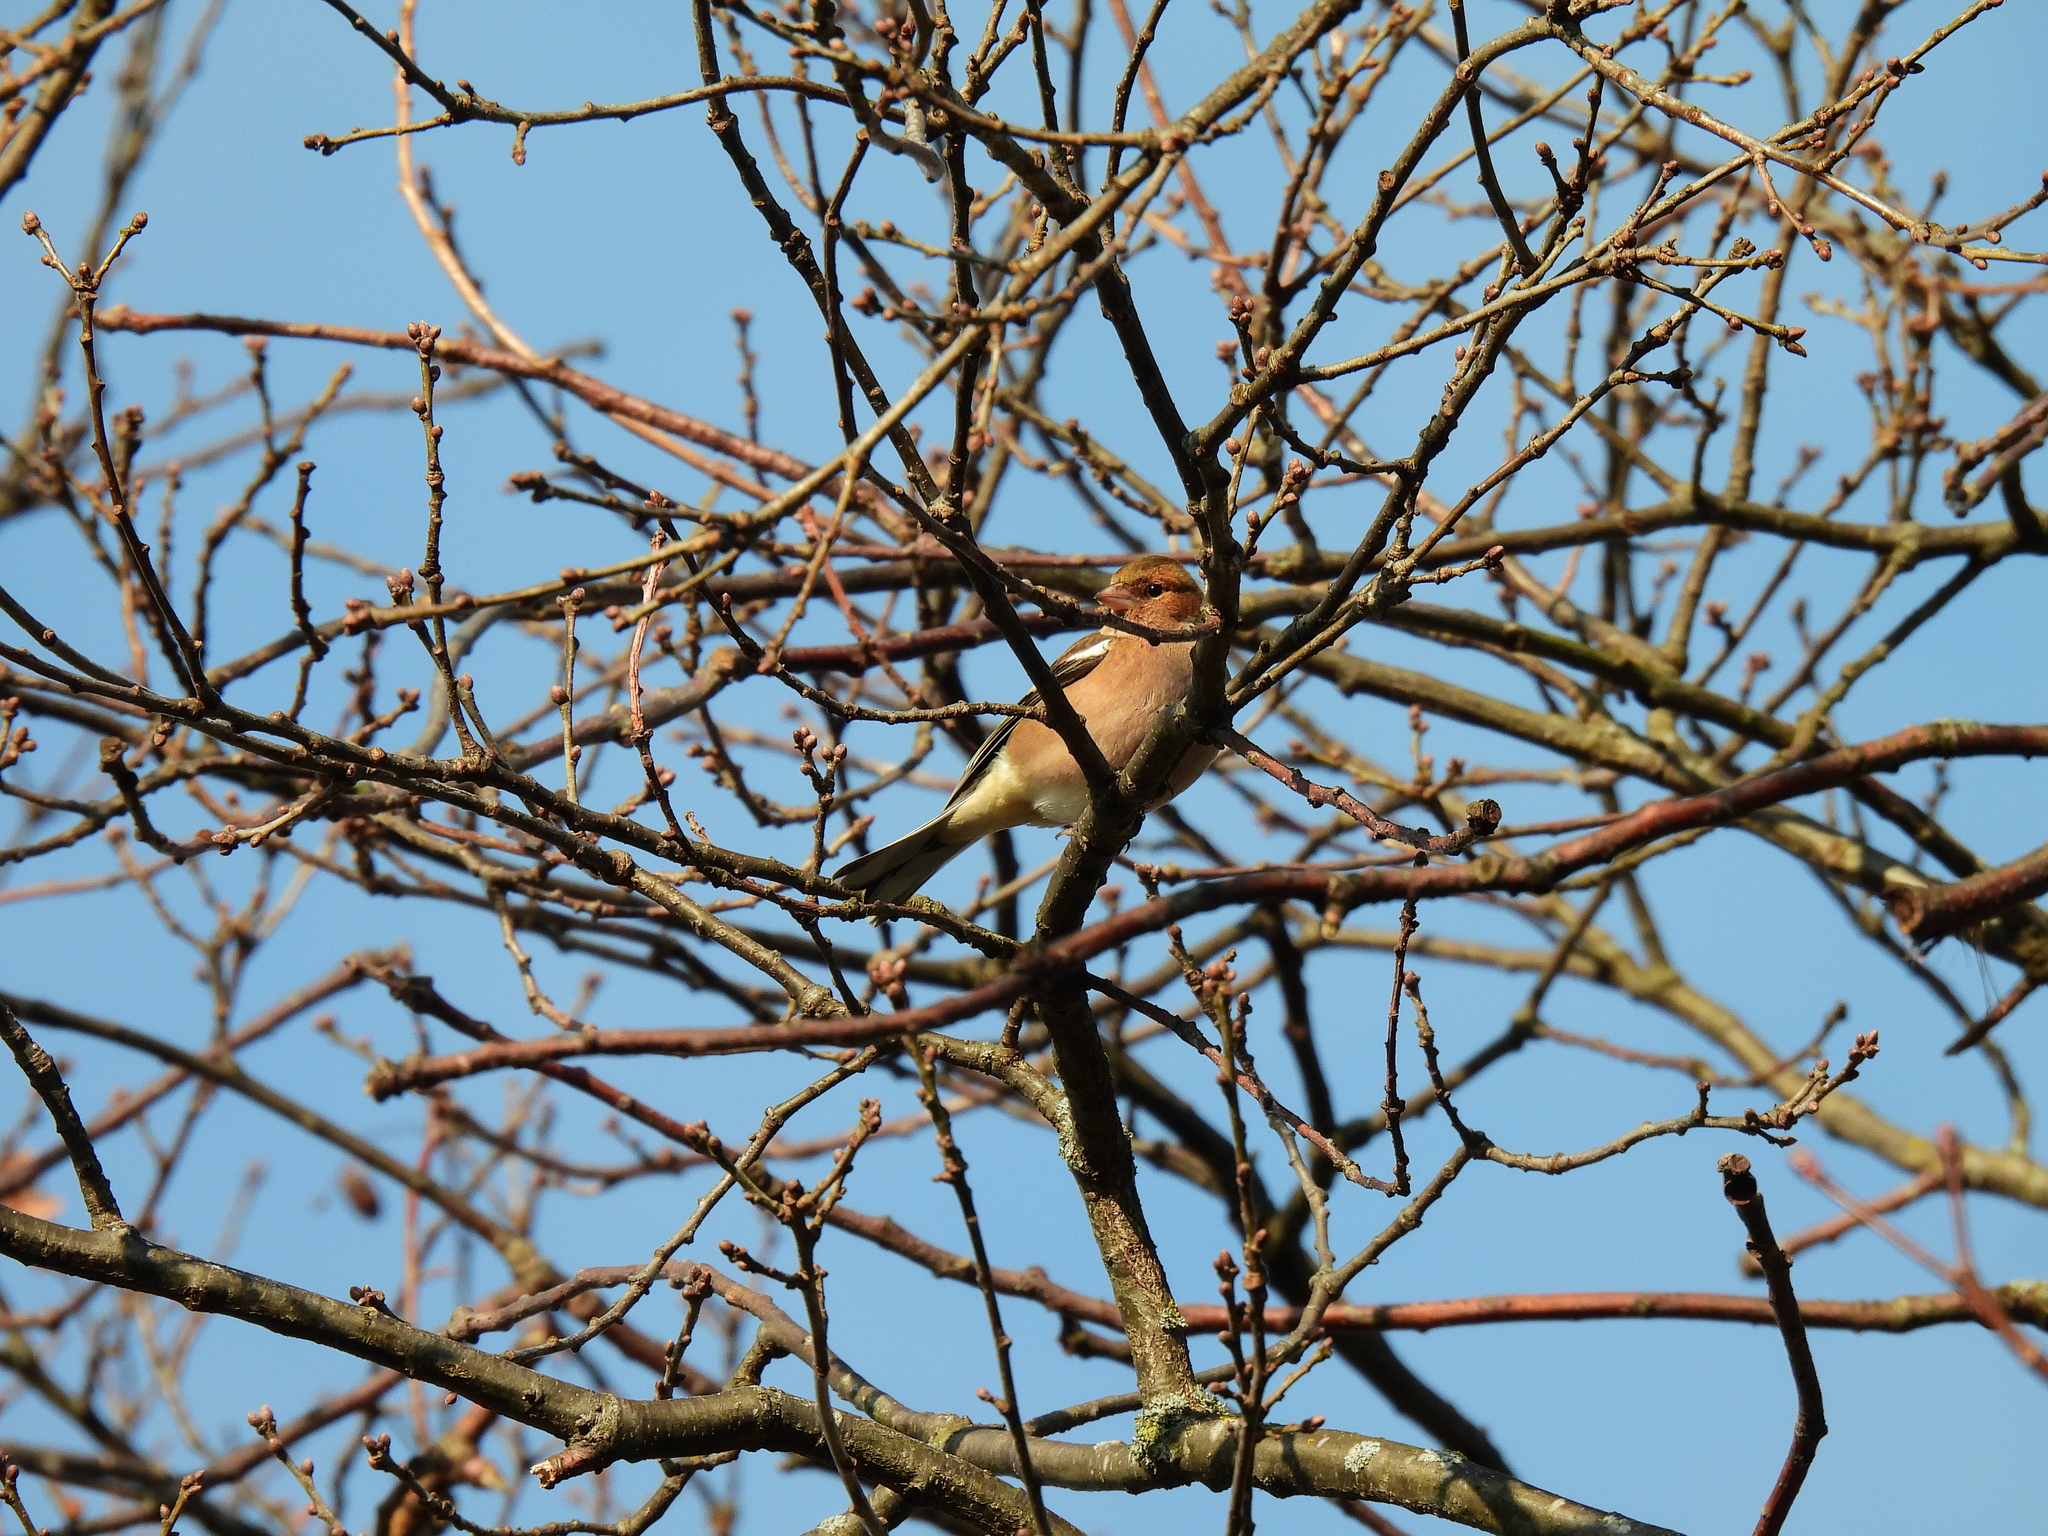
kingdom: Animalia
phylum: Chordata
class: Aves
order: Passeriformes
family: Fringillidae
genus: Fringilla
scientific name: Fringilla coelebs
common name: Common chaffinch
